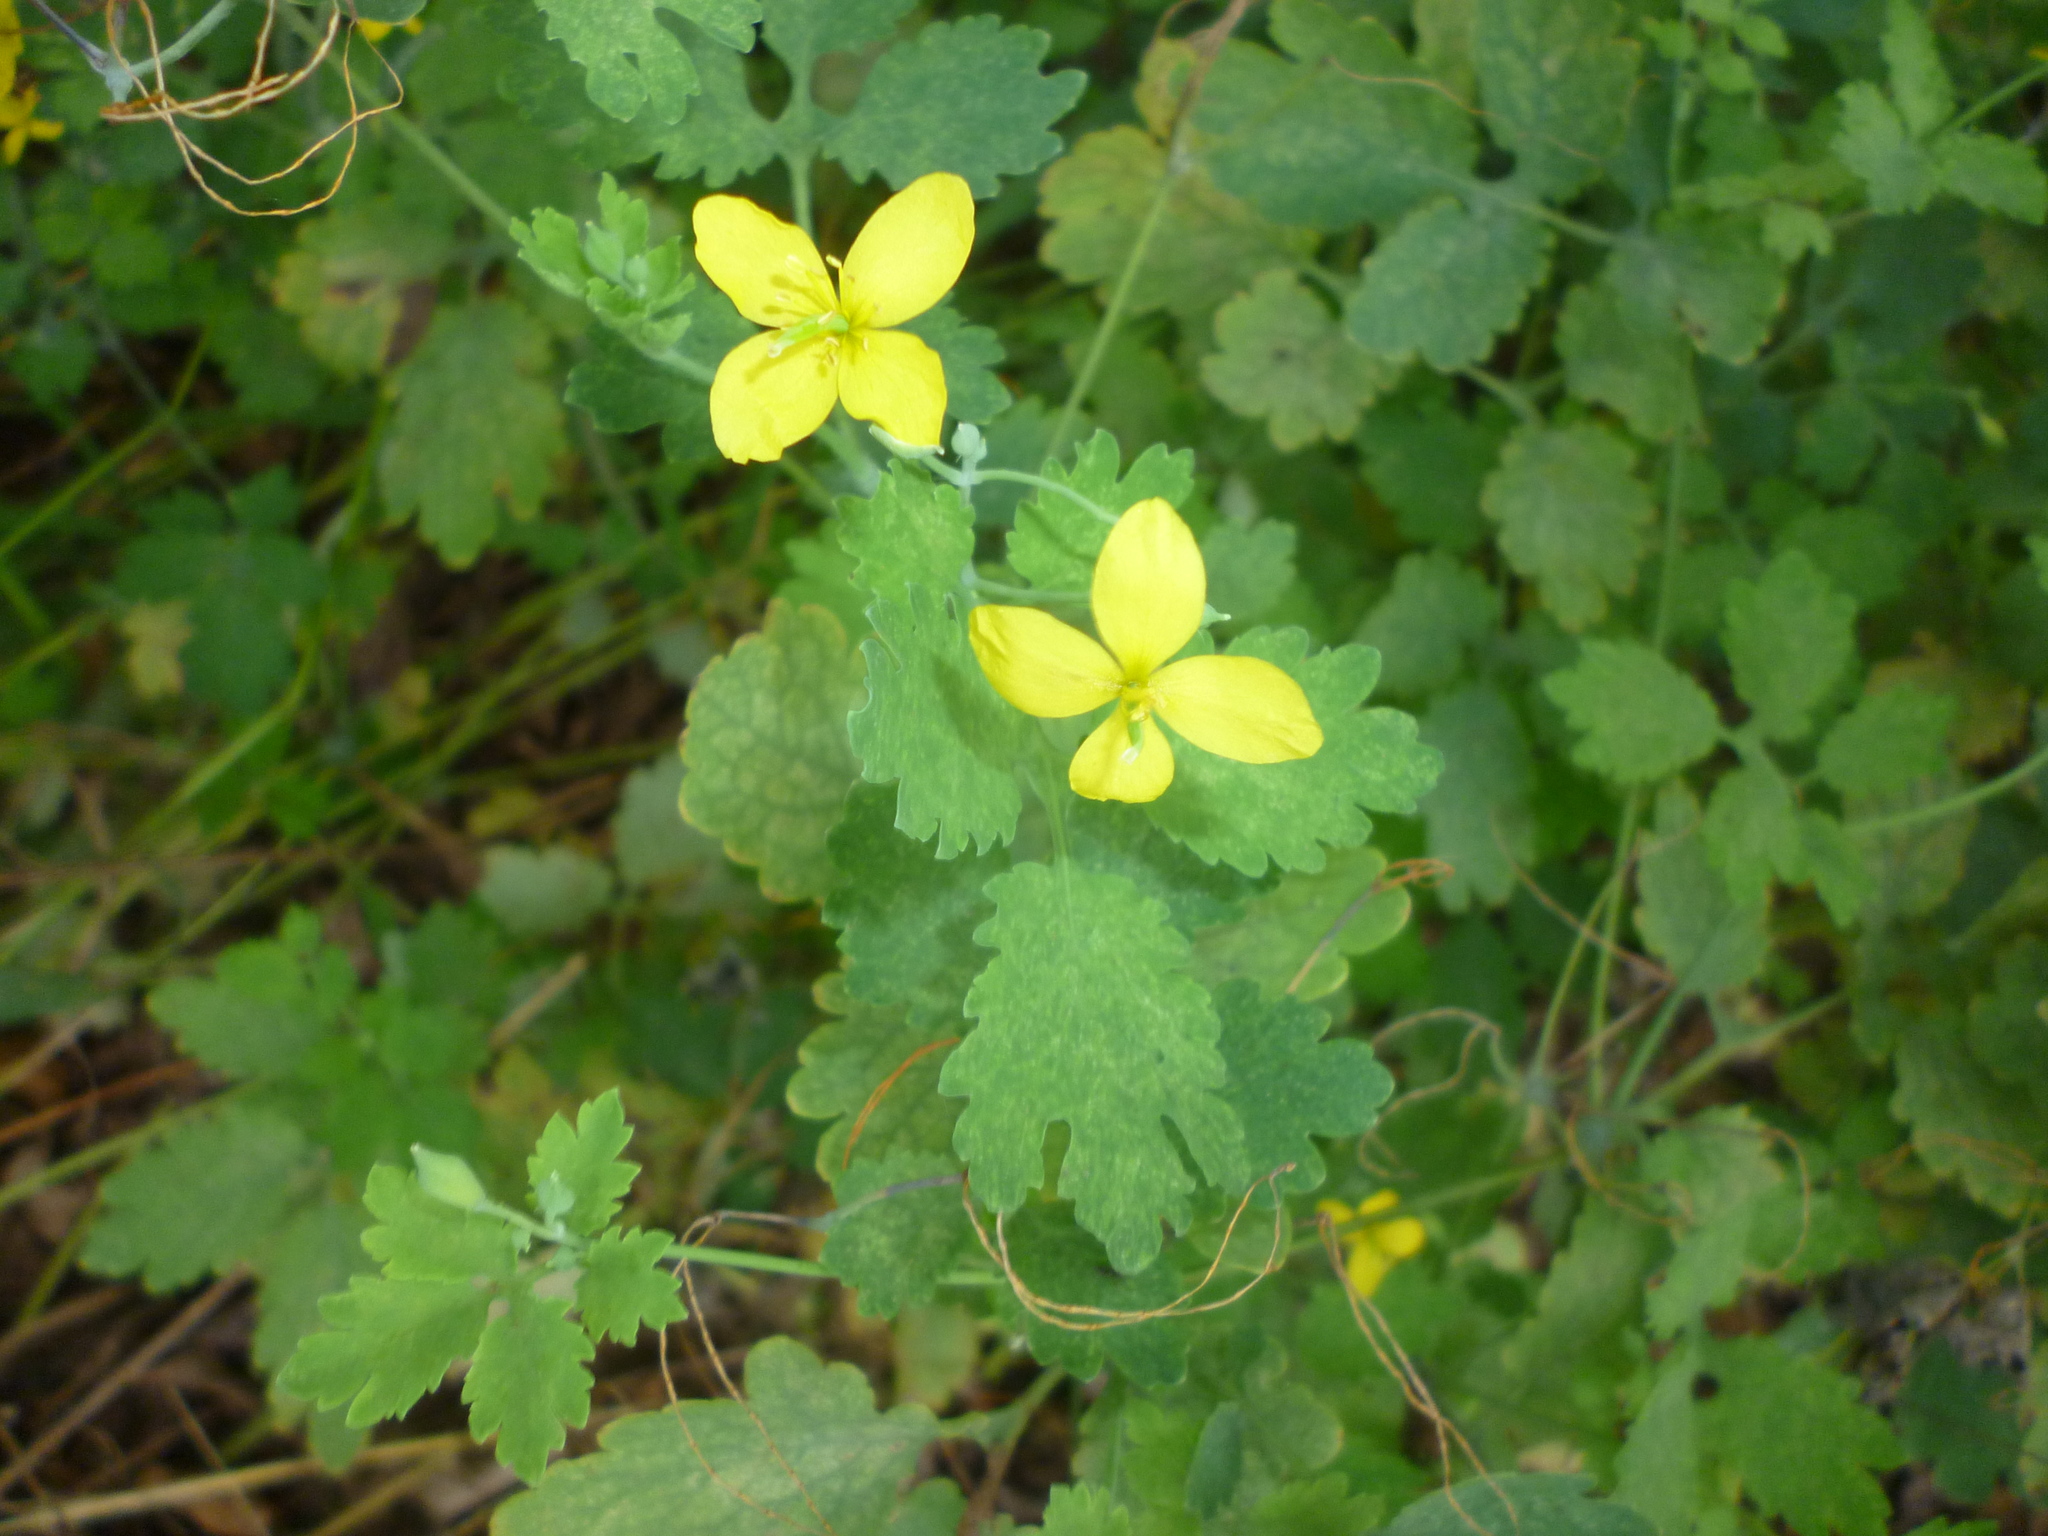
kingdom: Plantae
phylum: Tracheophyta
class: Magnoliopsida
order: Ranunculales
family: Papaveraceae
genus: Chelidonium
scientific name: Chelidonium majus
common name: Greater celandine
